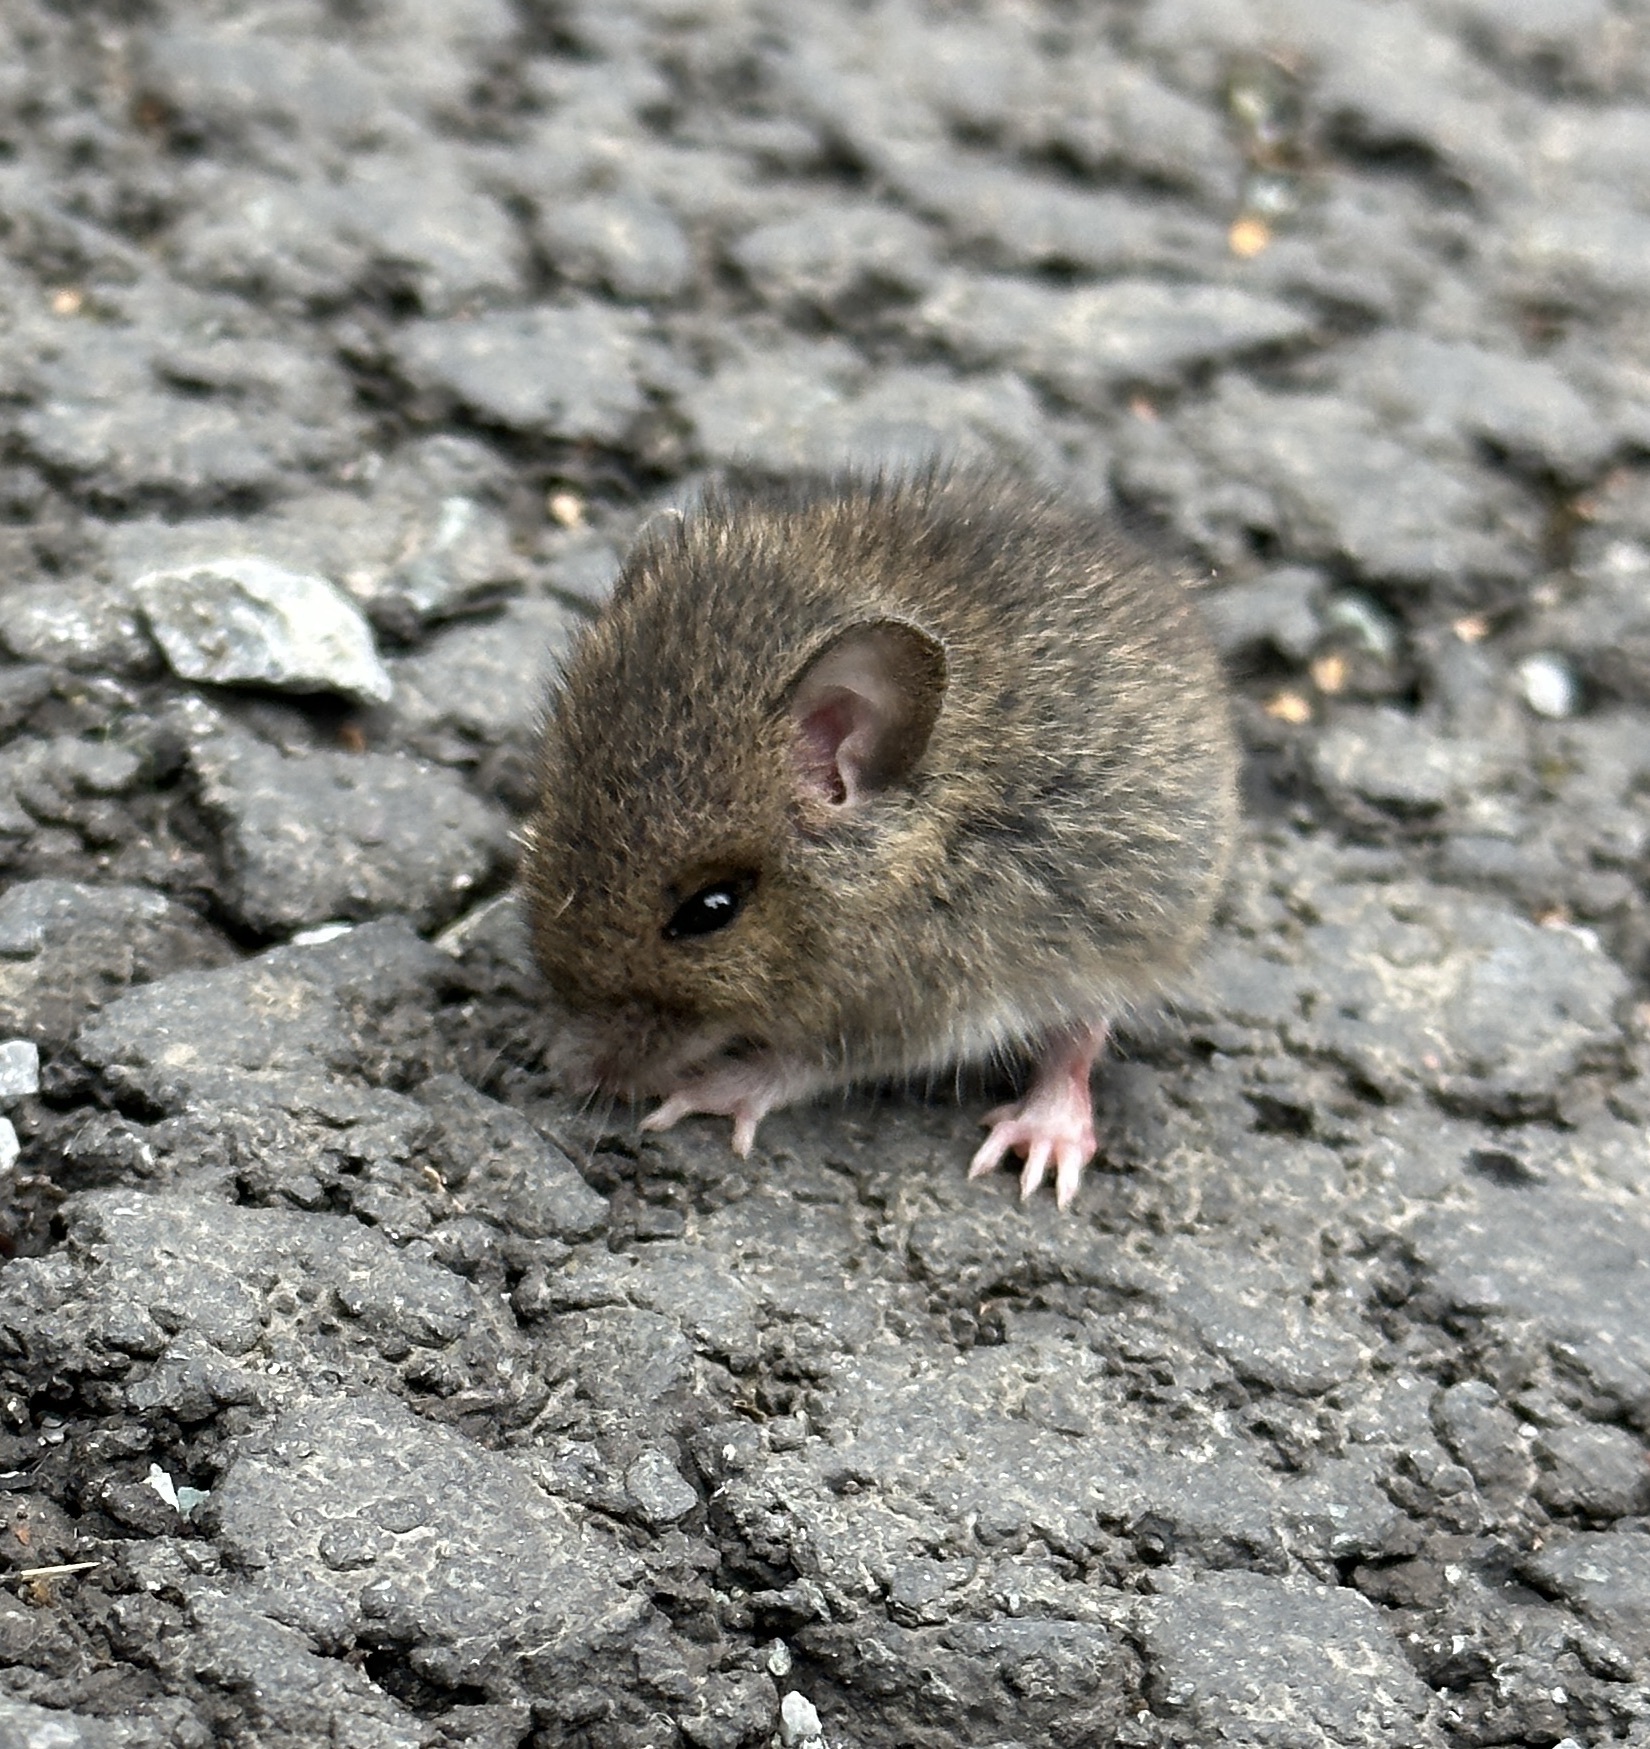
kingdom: Animalia
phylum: Chordata
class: Mammalia
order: Rodentia
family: Muridae
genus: Apodemus
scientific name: Apodemus sylvaticus
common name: Wood mouse
